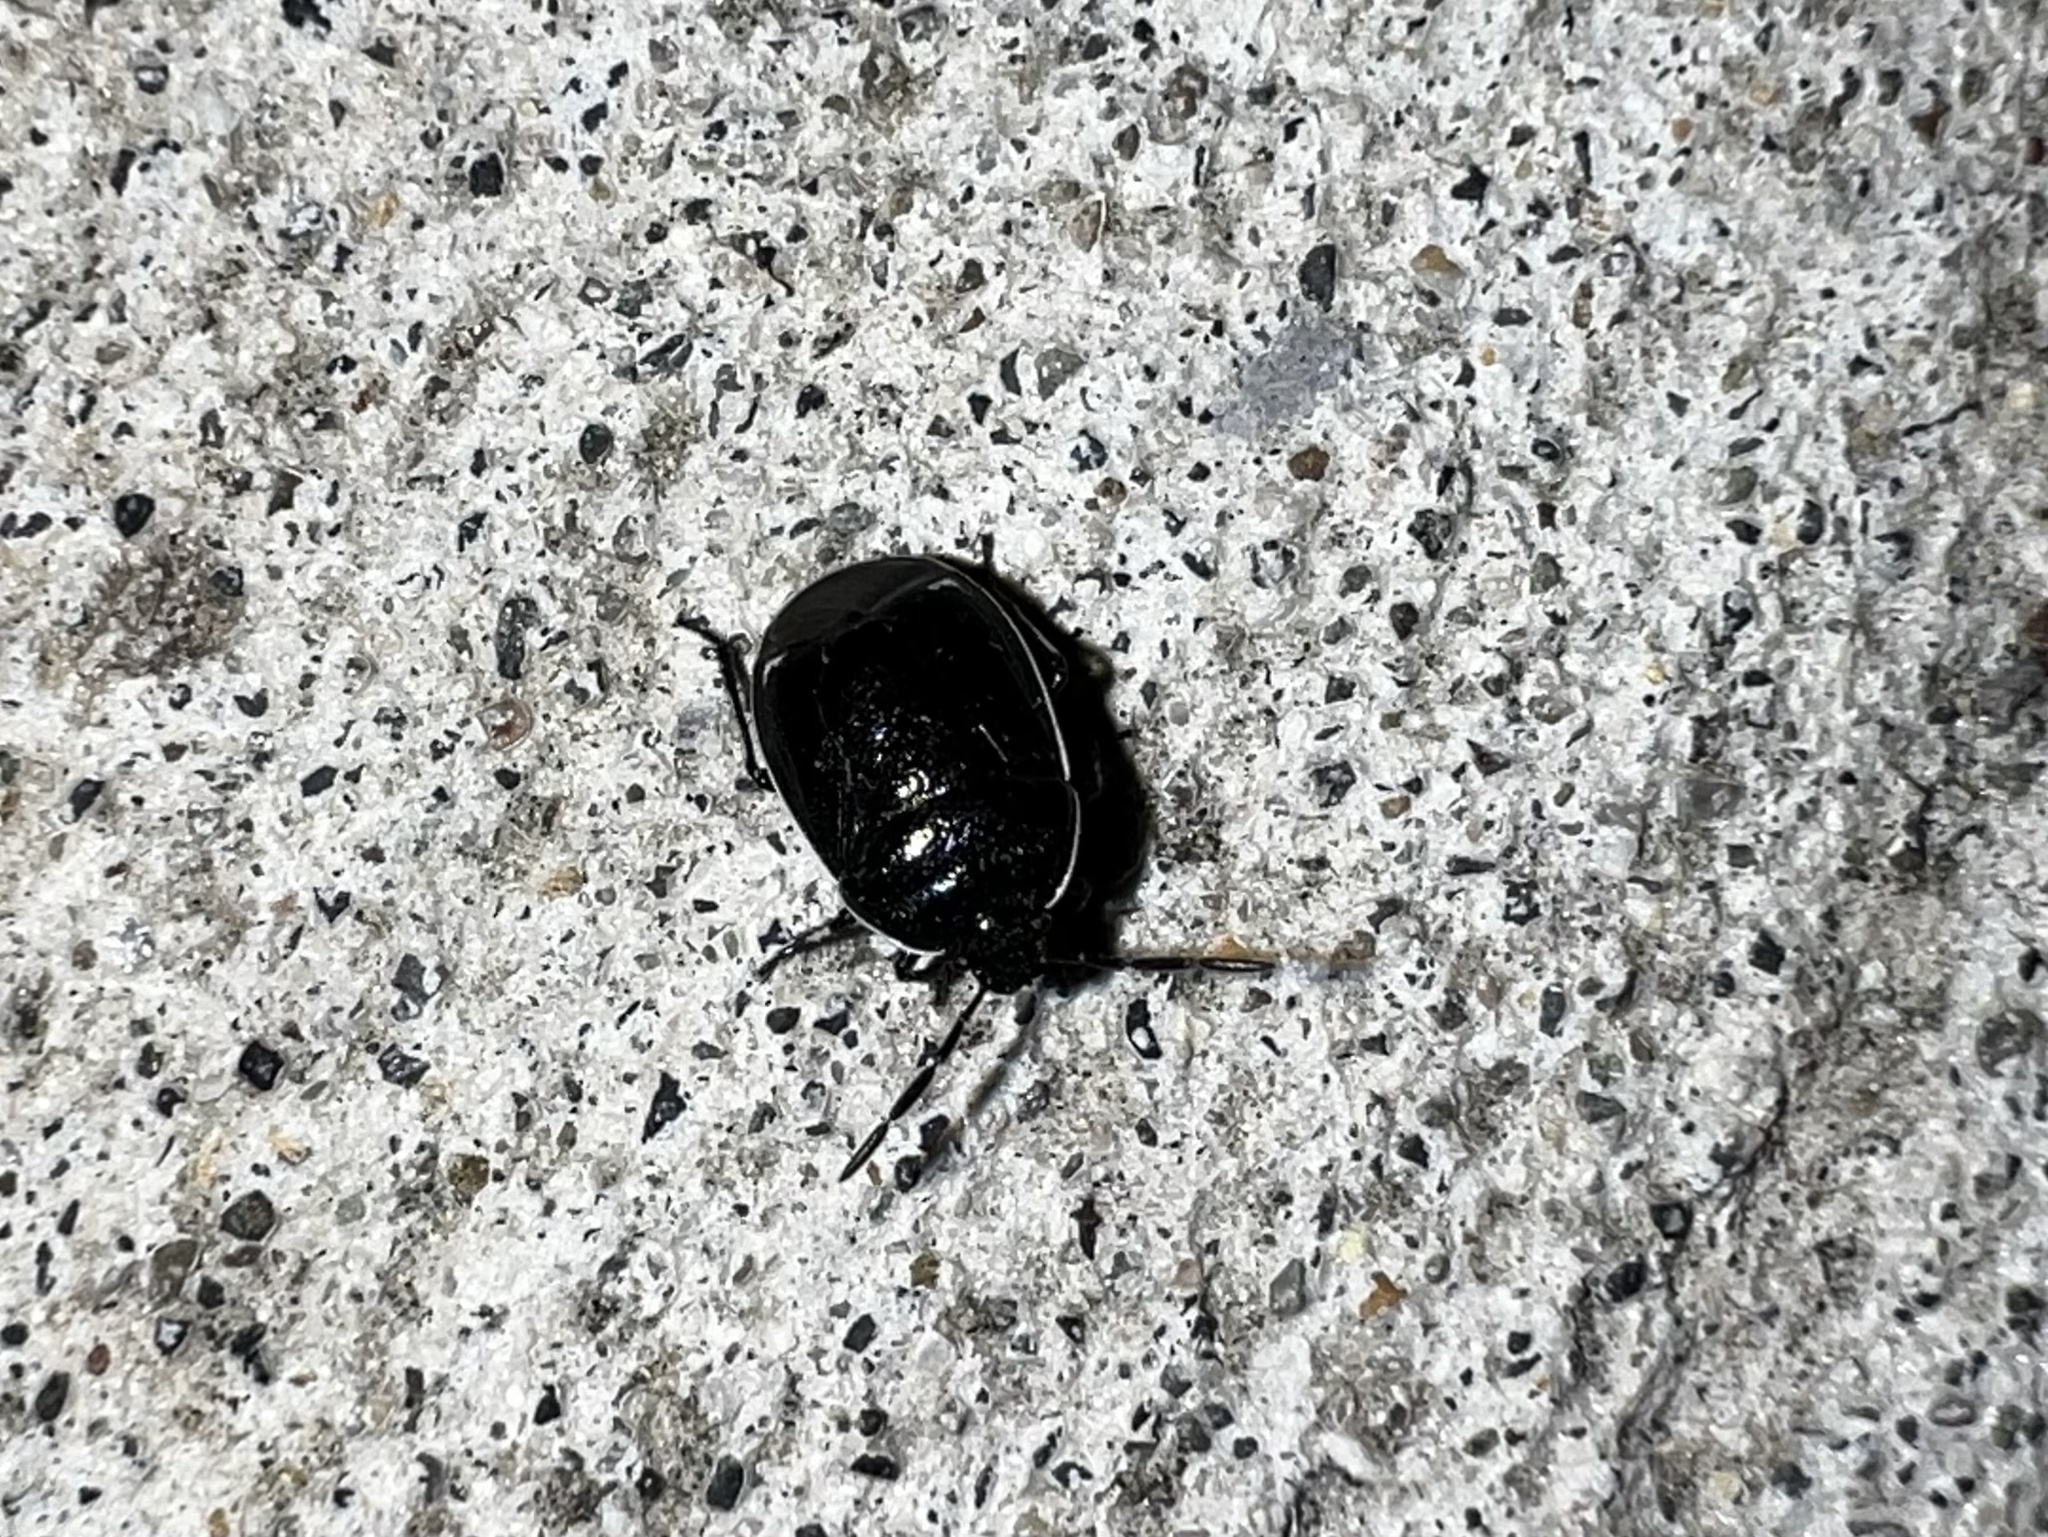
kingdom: Animalia
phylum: Arthropoda
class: Insecta
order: Hemiptera
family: Cydnidae
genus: Sehirus
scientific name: Sehirus cinctus
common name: White-margined burrower bug
